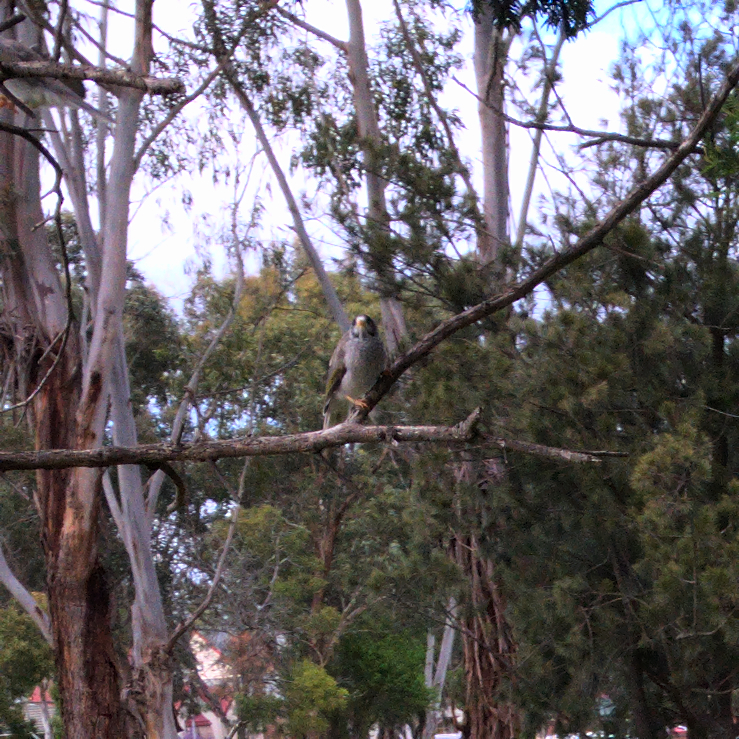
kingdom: Animalia
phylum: Chordata
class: Aves
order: Passeriformes
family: Meliphagidae
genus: Manorina
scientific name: Manorina melanocephala
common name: Noisy miner
